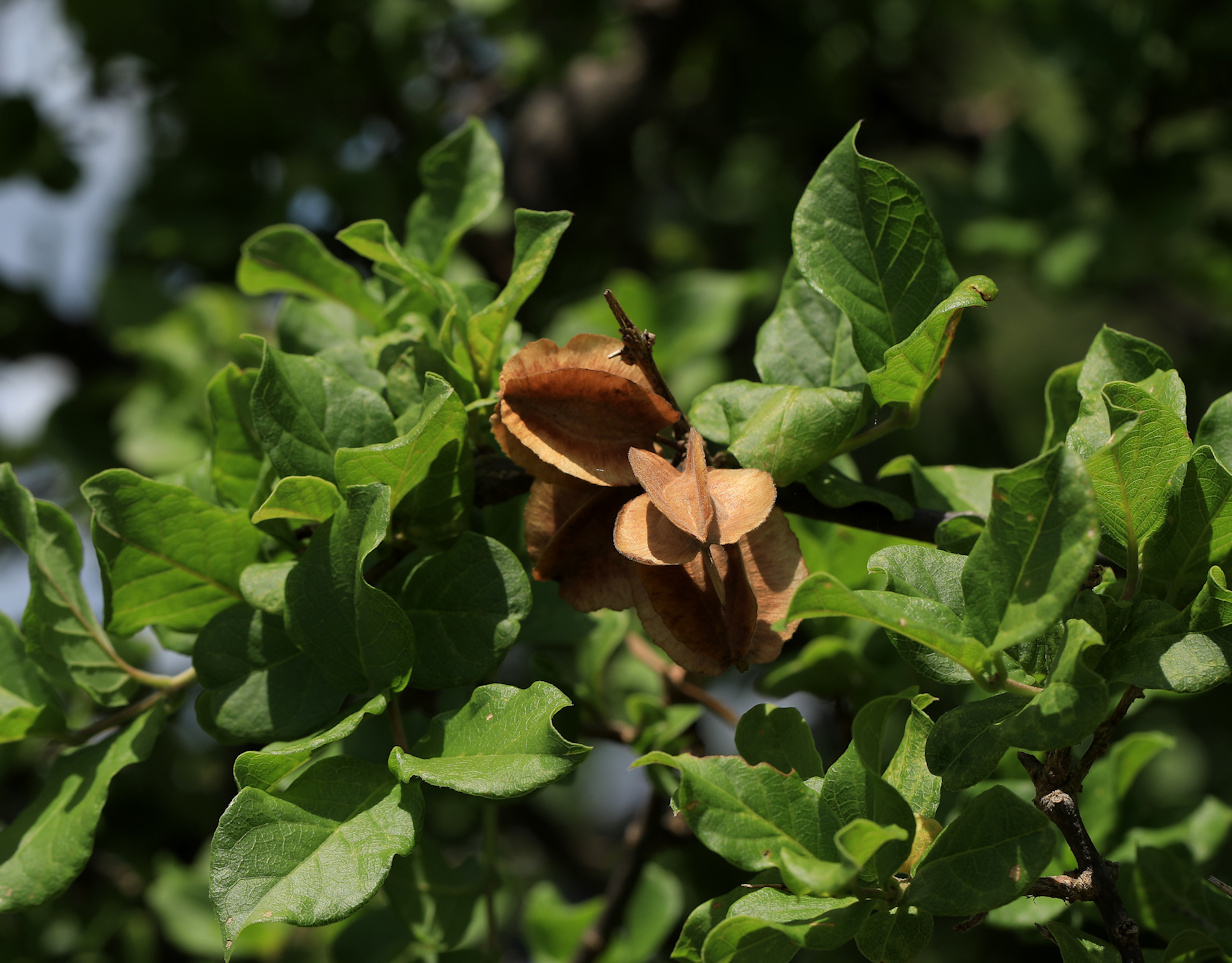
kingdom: Plantae
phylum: Tracheophyta
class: Magnoliopsida
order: Myrtales
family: Combretaceae
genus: Combretum
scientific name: Combretum mossambicense
